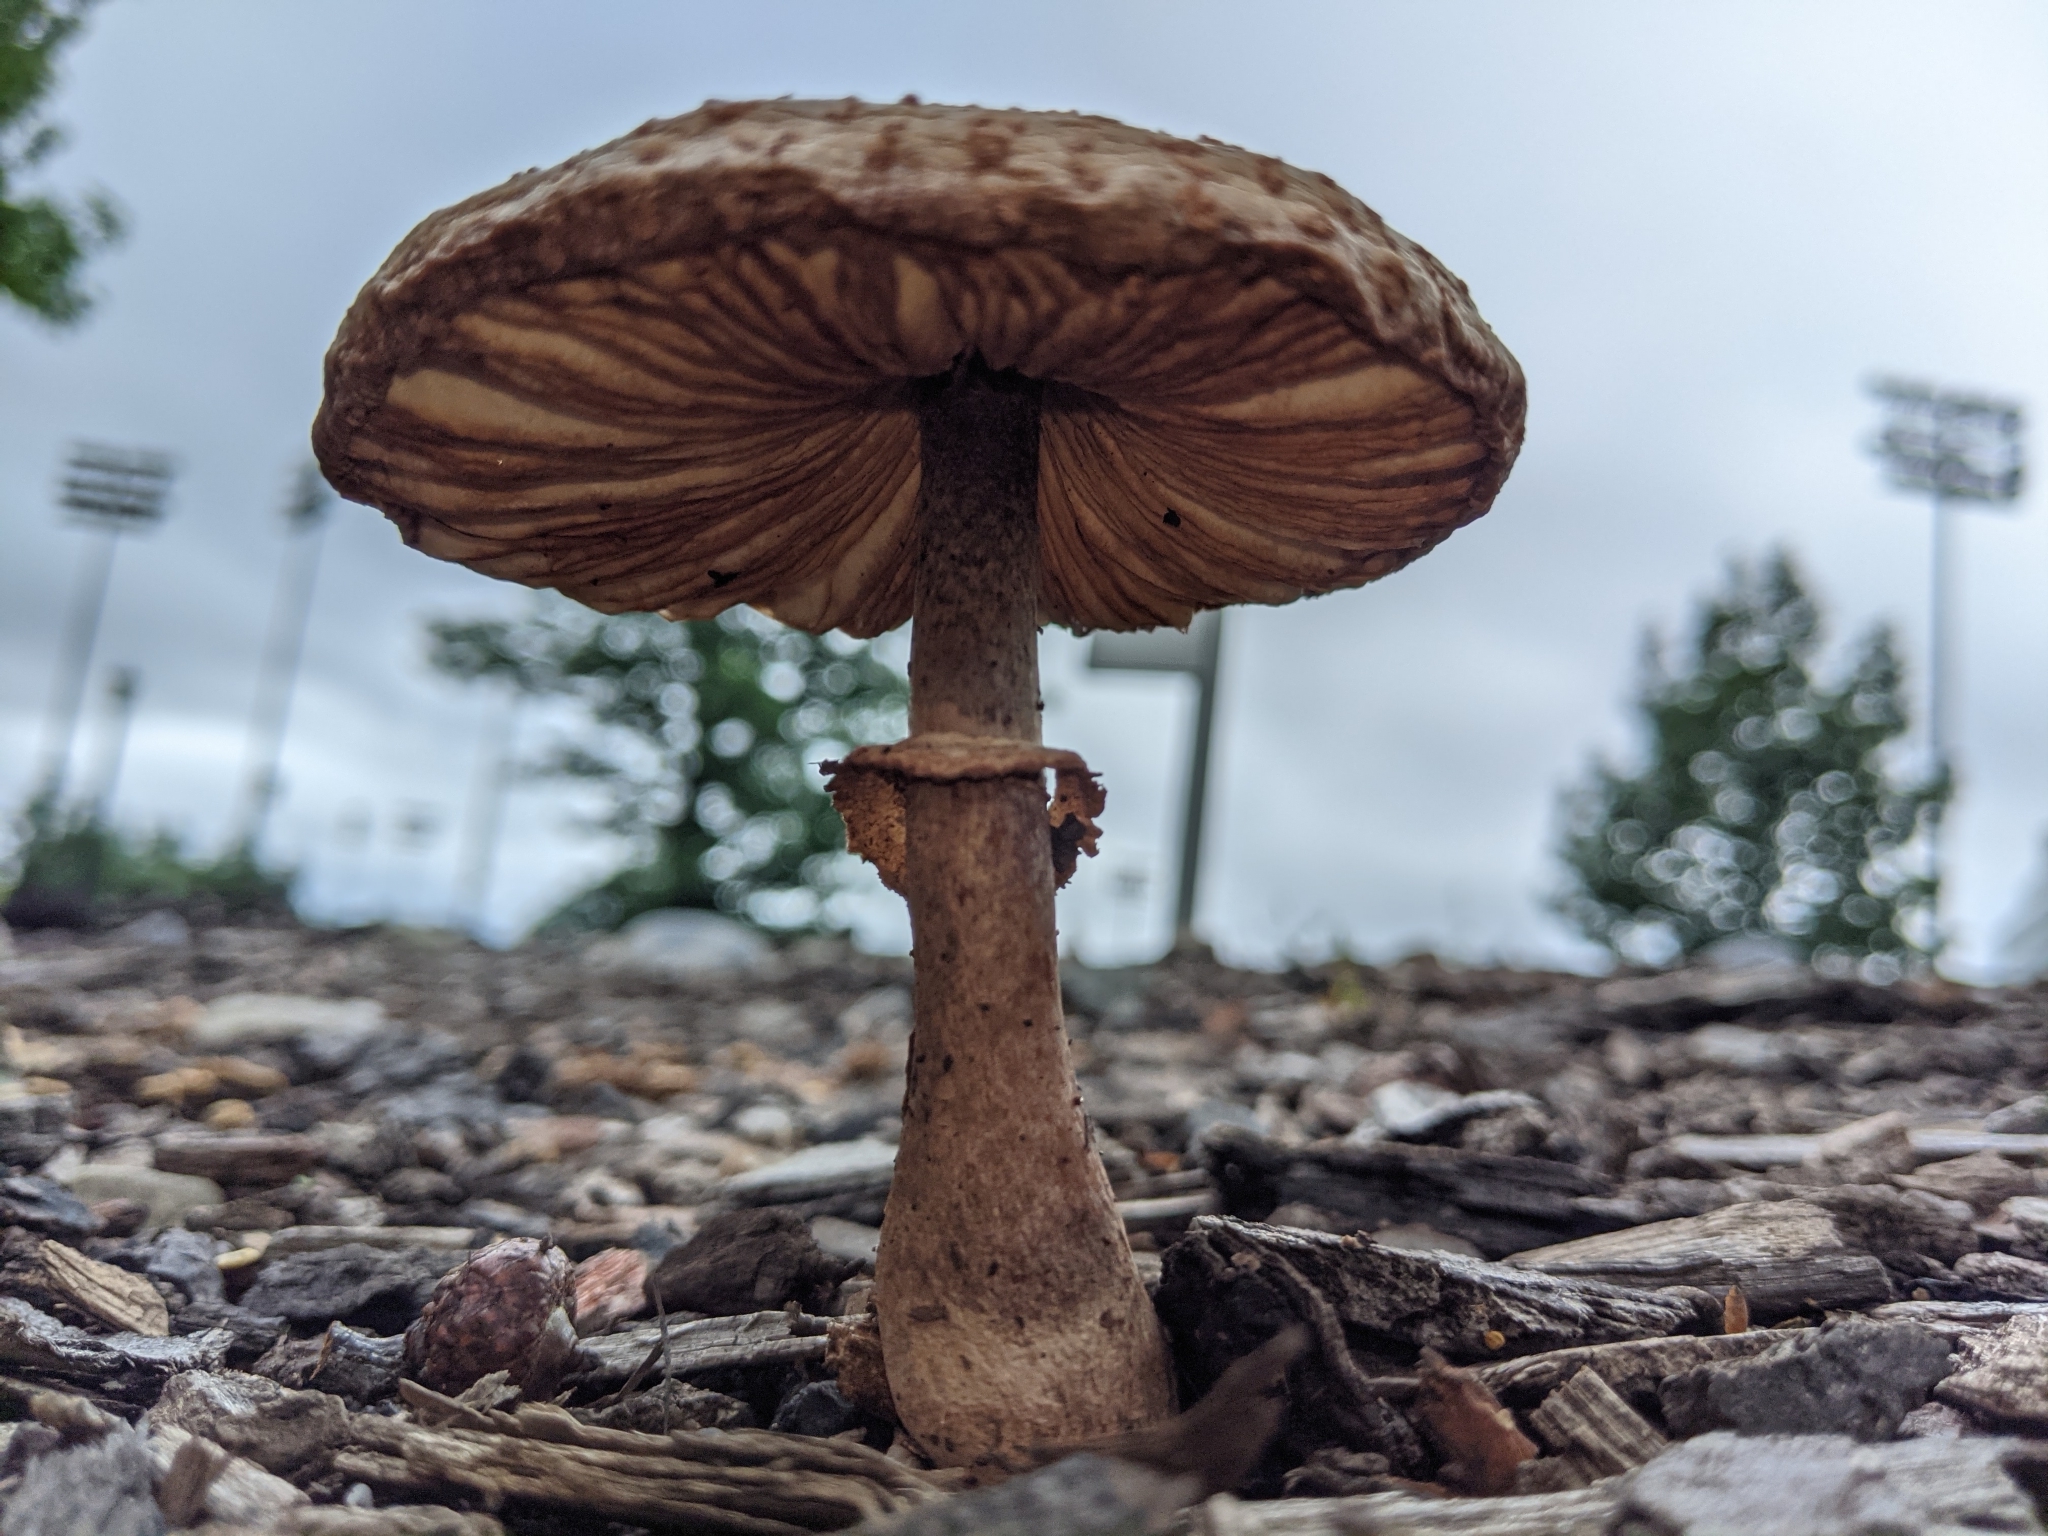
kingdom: Fungi
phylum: Basidiomycota
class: Agaricomycetes
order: Agaricales
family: Agaricaceae
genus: Leucoagaricus
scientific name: Leucoagaricus americanus
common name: Reddening lepiota
